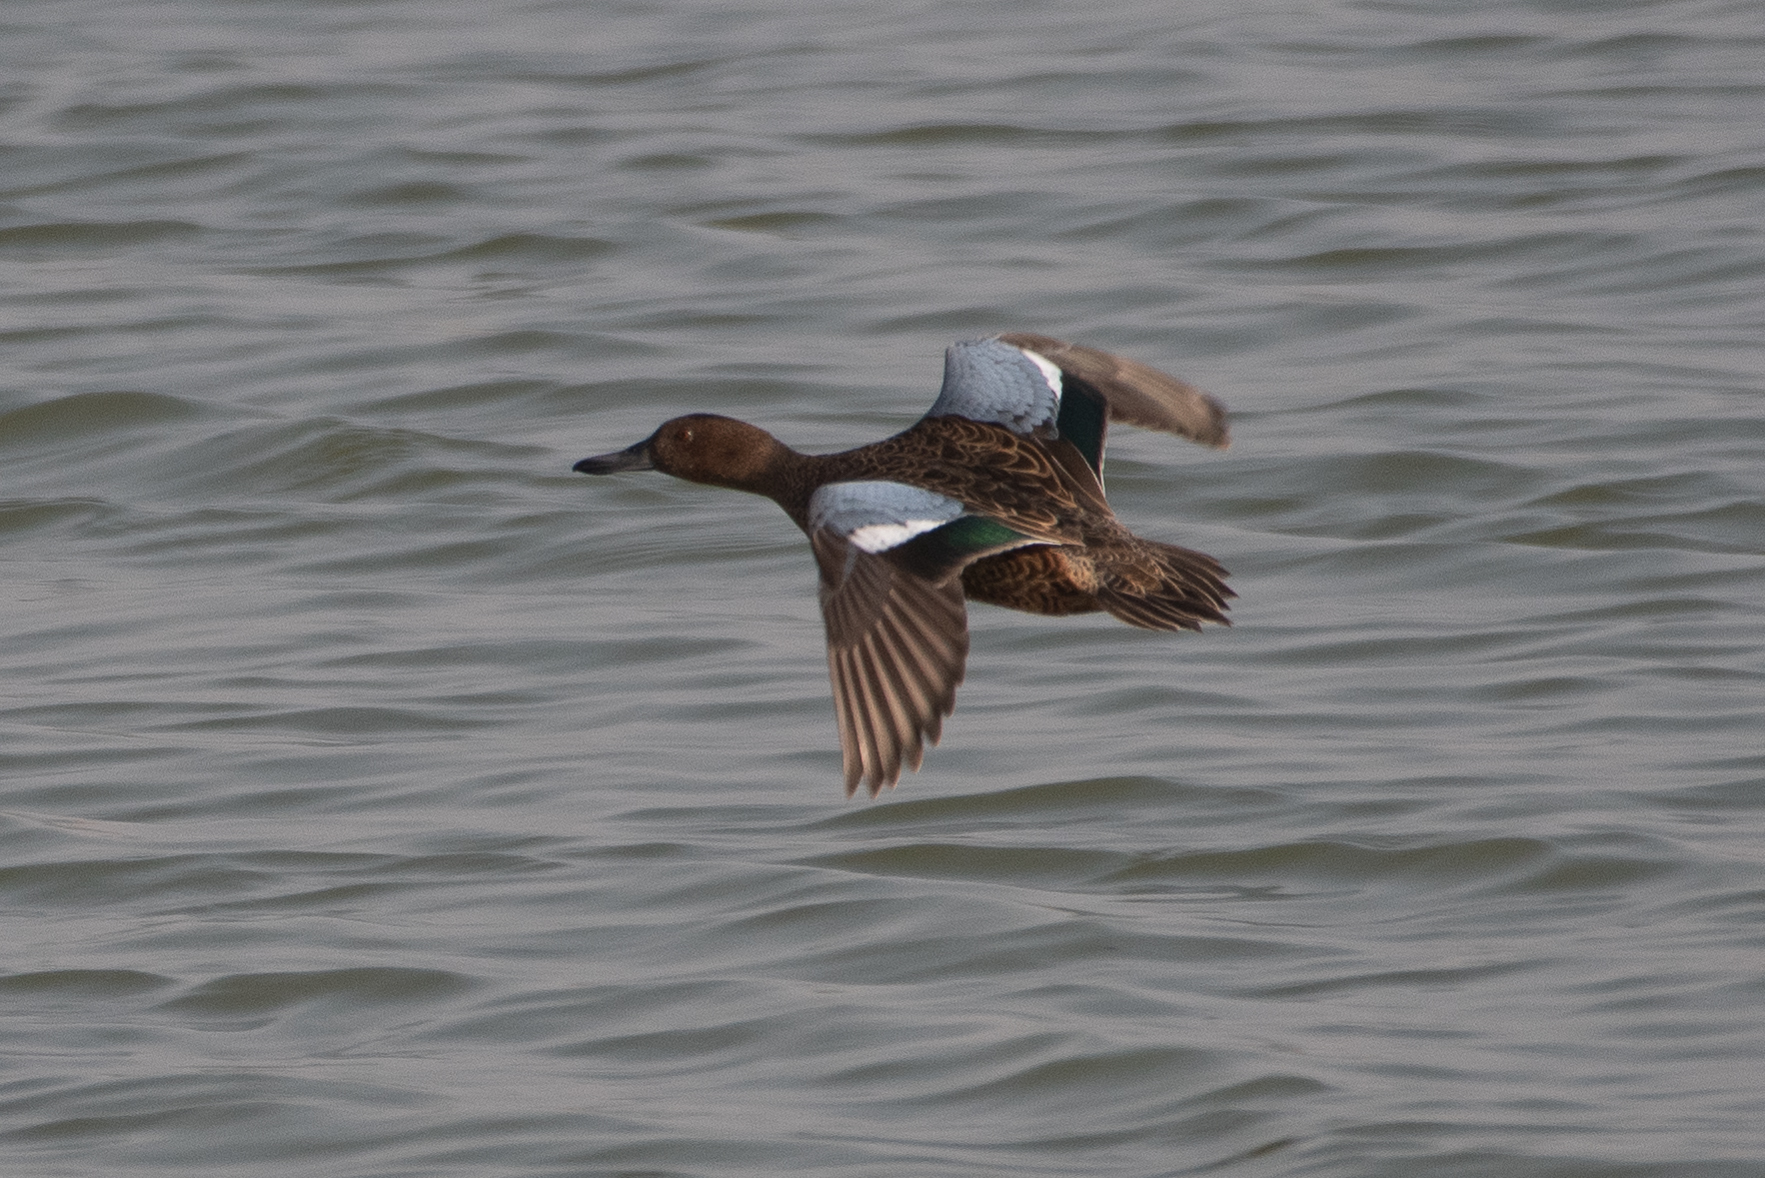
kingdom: Animalia
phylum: Chordata
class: Aves
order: Anseriformes
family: Anatidae
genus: Spatula
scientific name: Spatula cyanoptera
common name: Cinnamon teal
